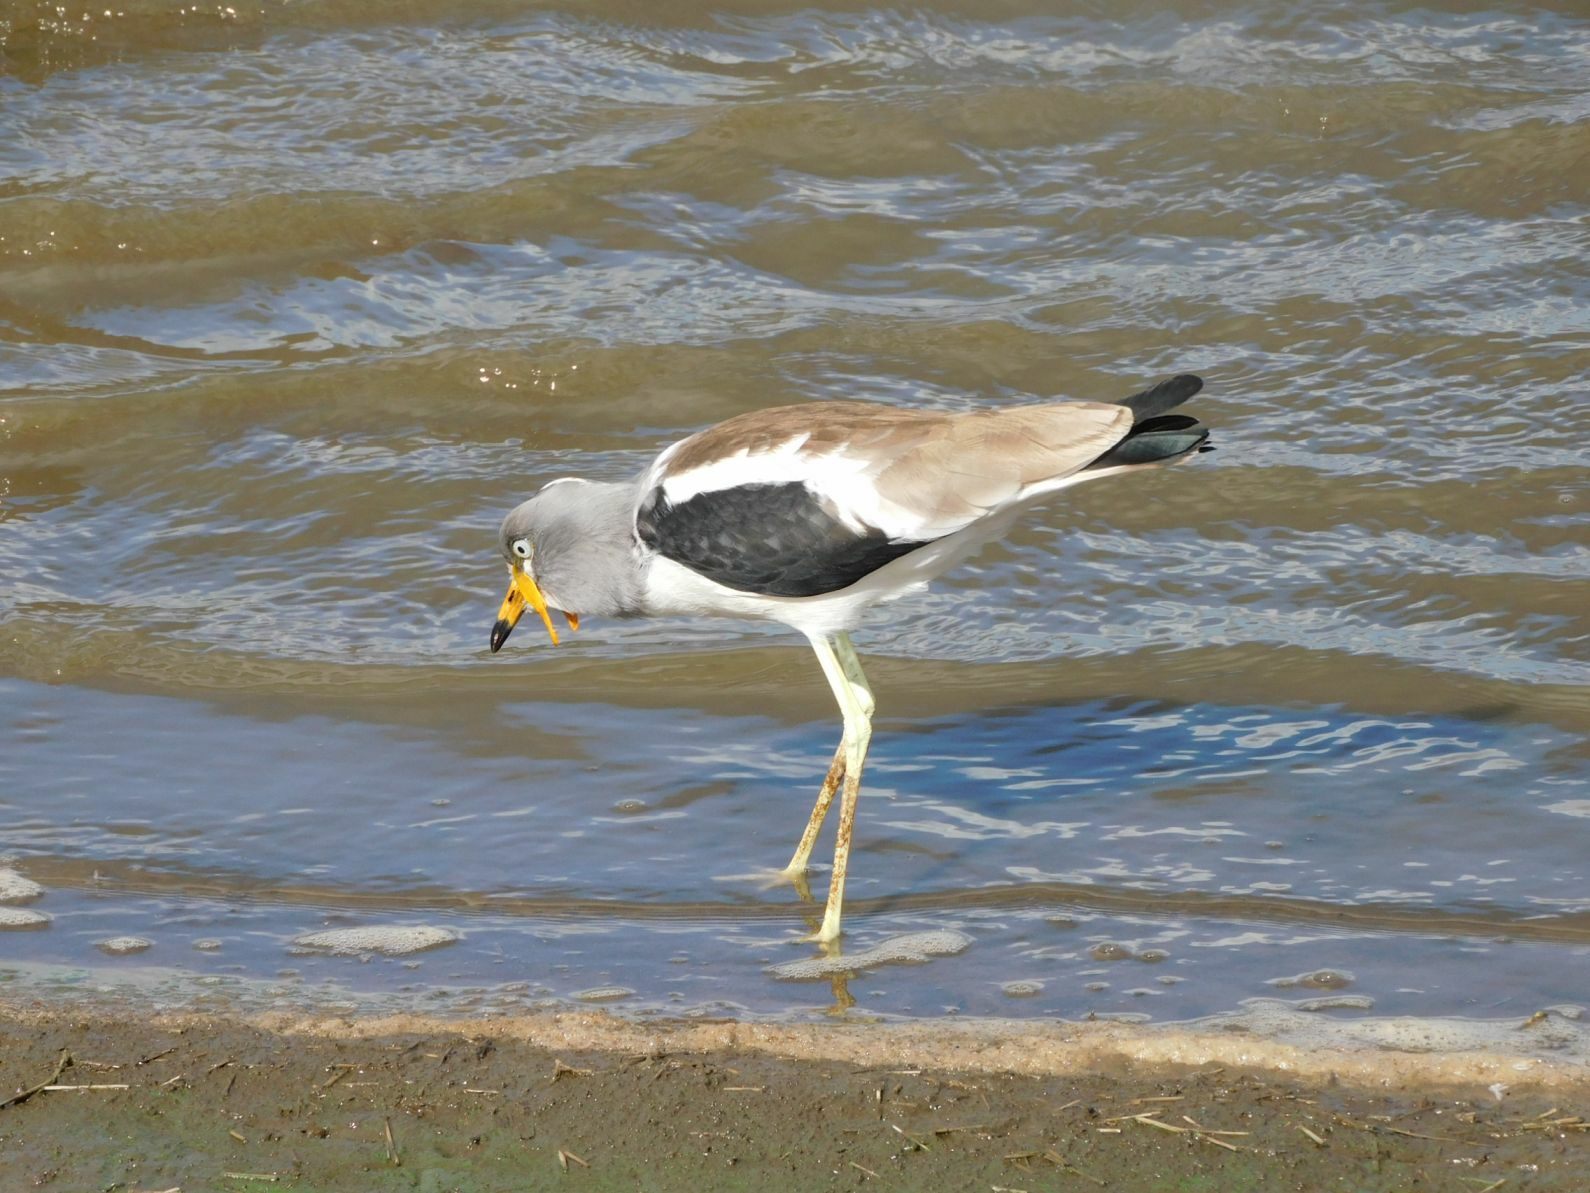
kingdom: Animalia
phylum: Chordata
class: Aves
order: Charadriiformes
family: Charadriidae
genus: Vanellus
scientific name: Vanellus albiceps
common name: White-crowned lapwing
